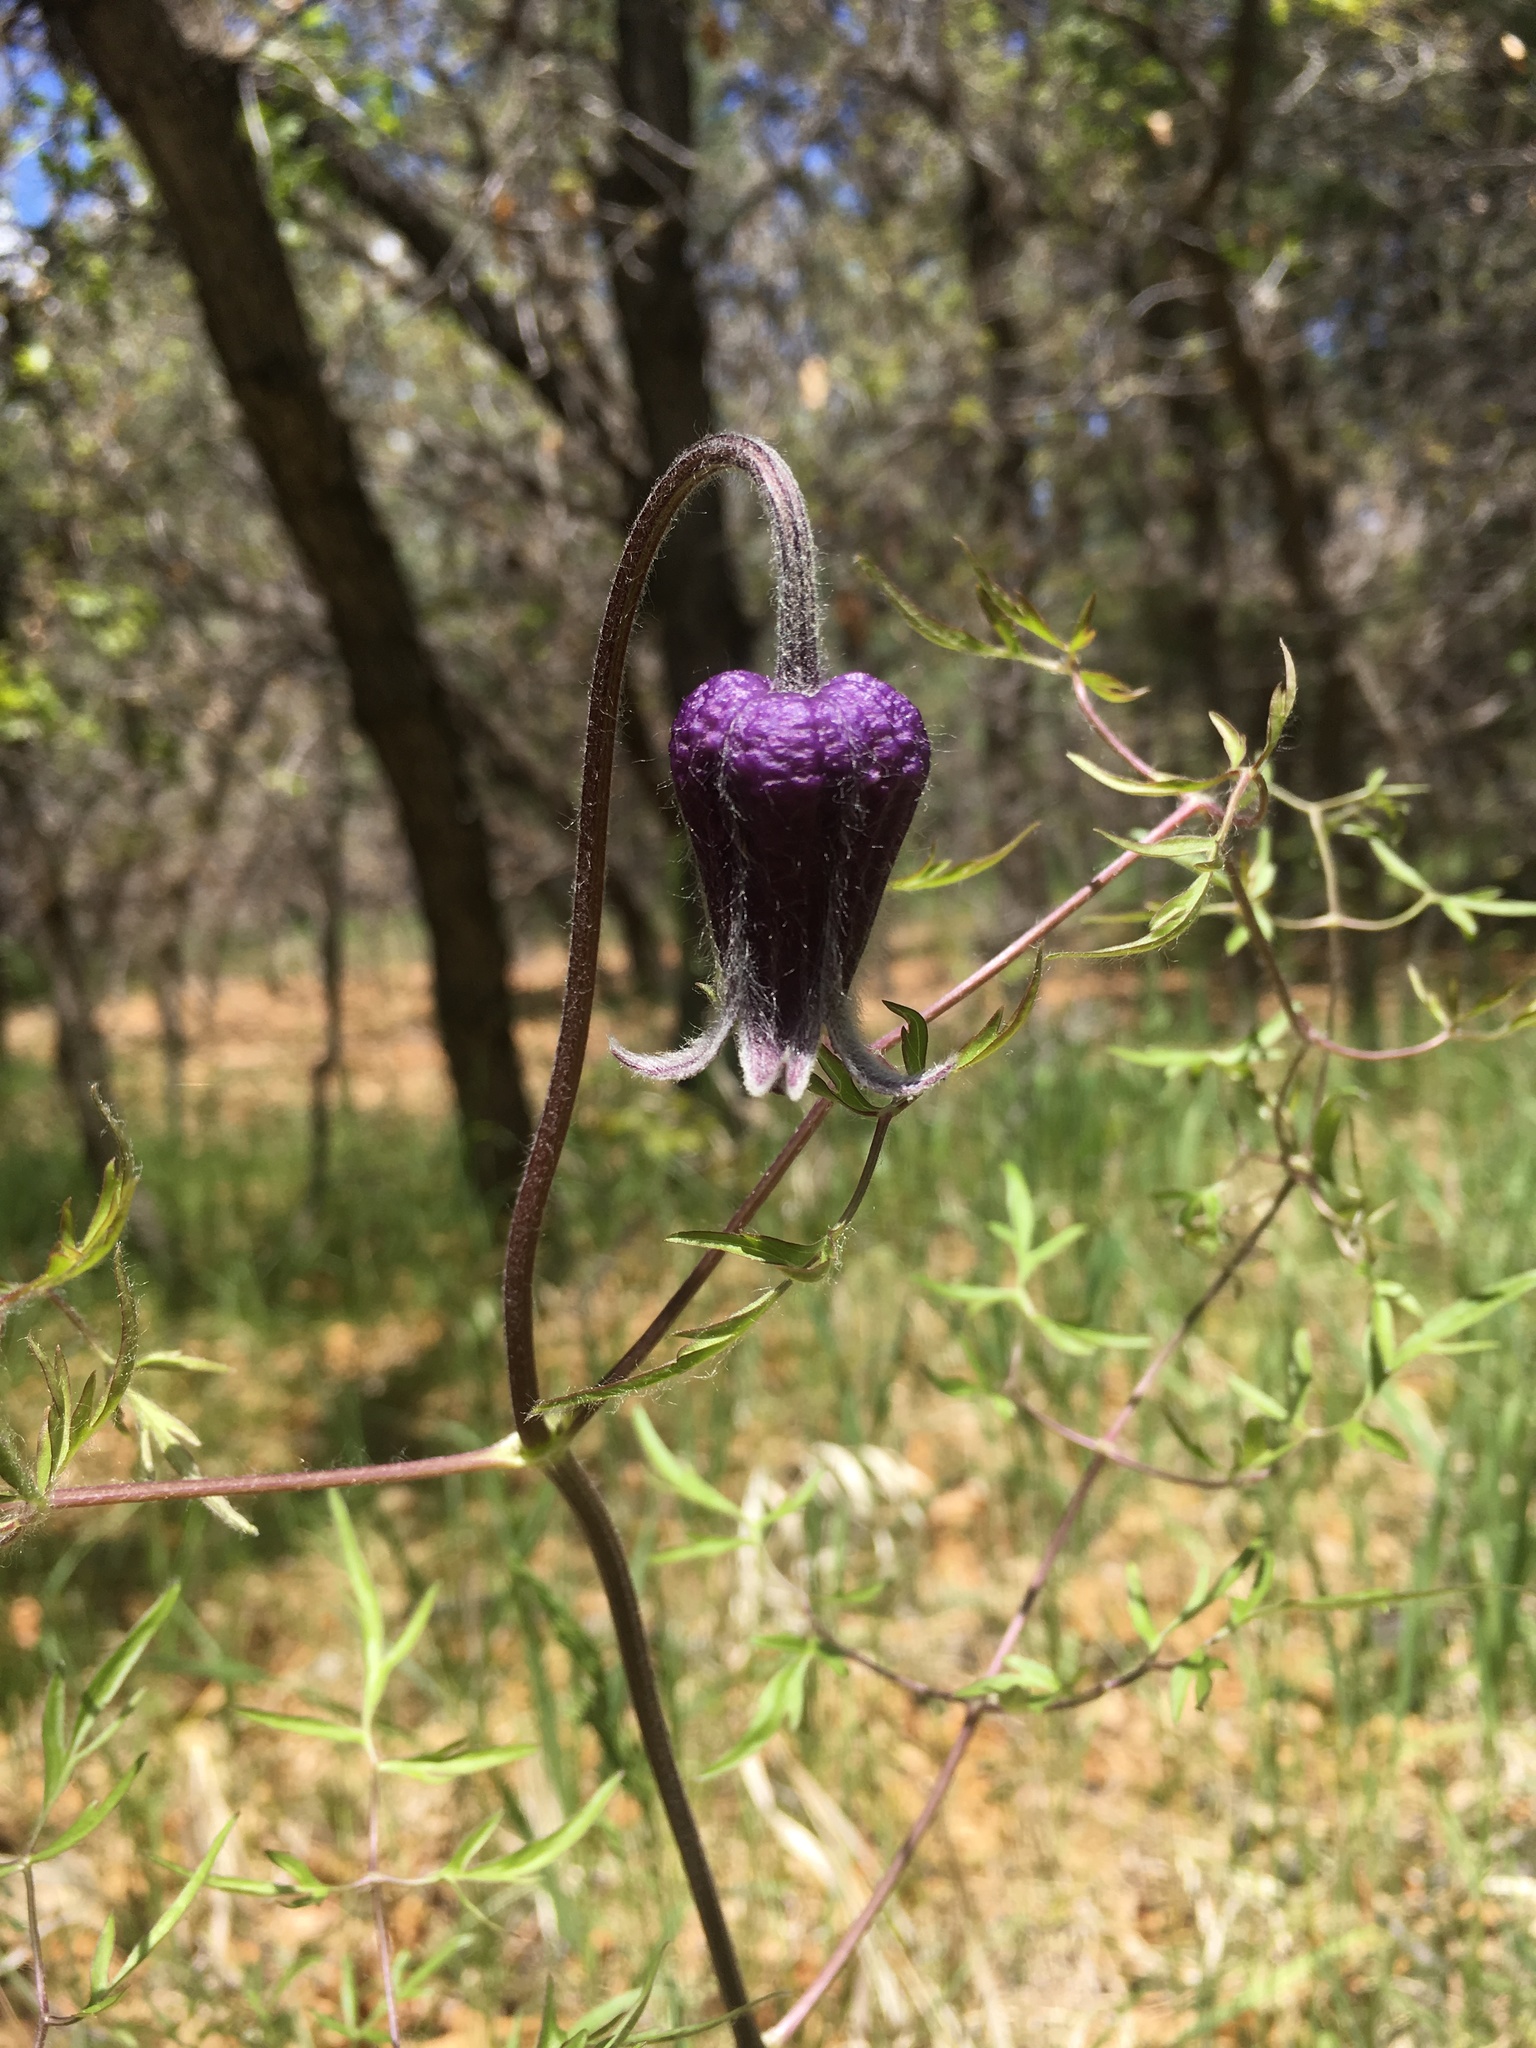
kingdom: Plantae
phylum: Tracheophyta
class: Magnoliopsida
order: Ranunculales
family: Ranunculaceae
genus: Clematis
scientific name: Clematis hirsutissima
